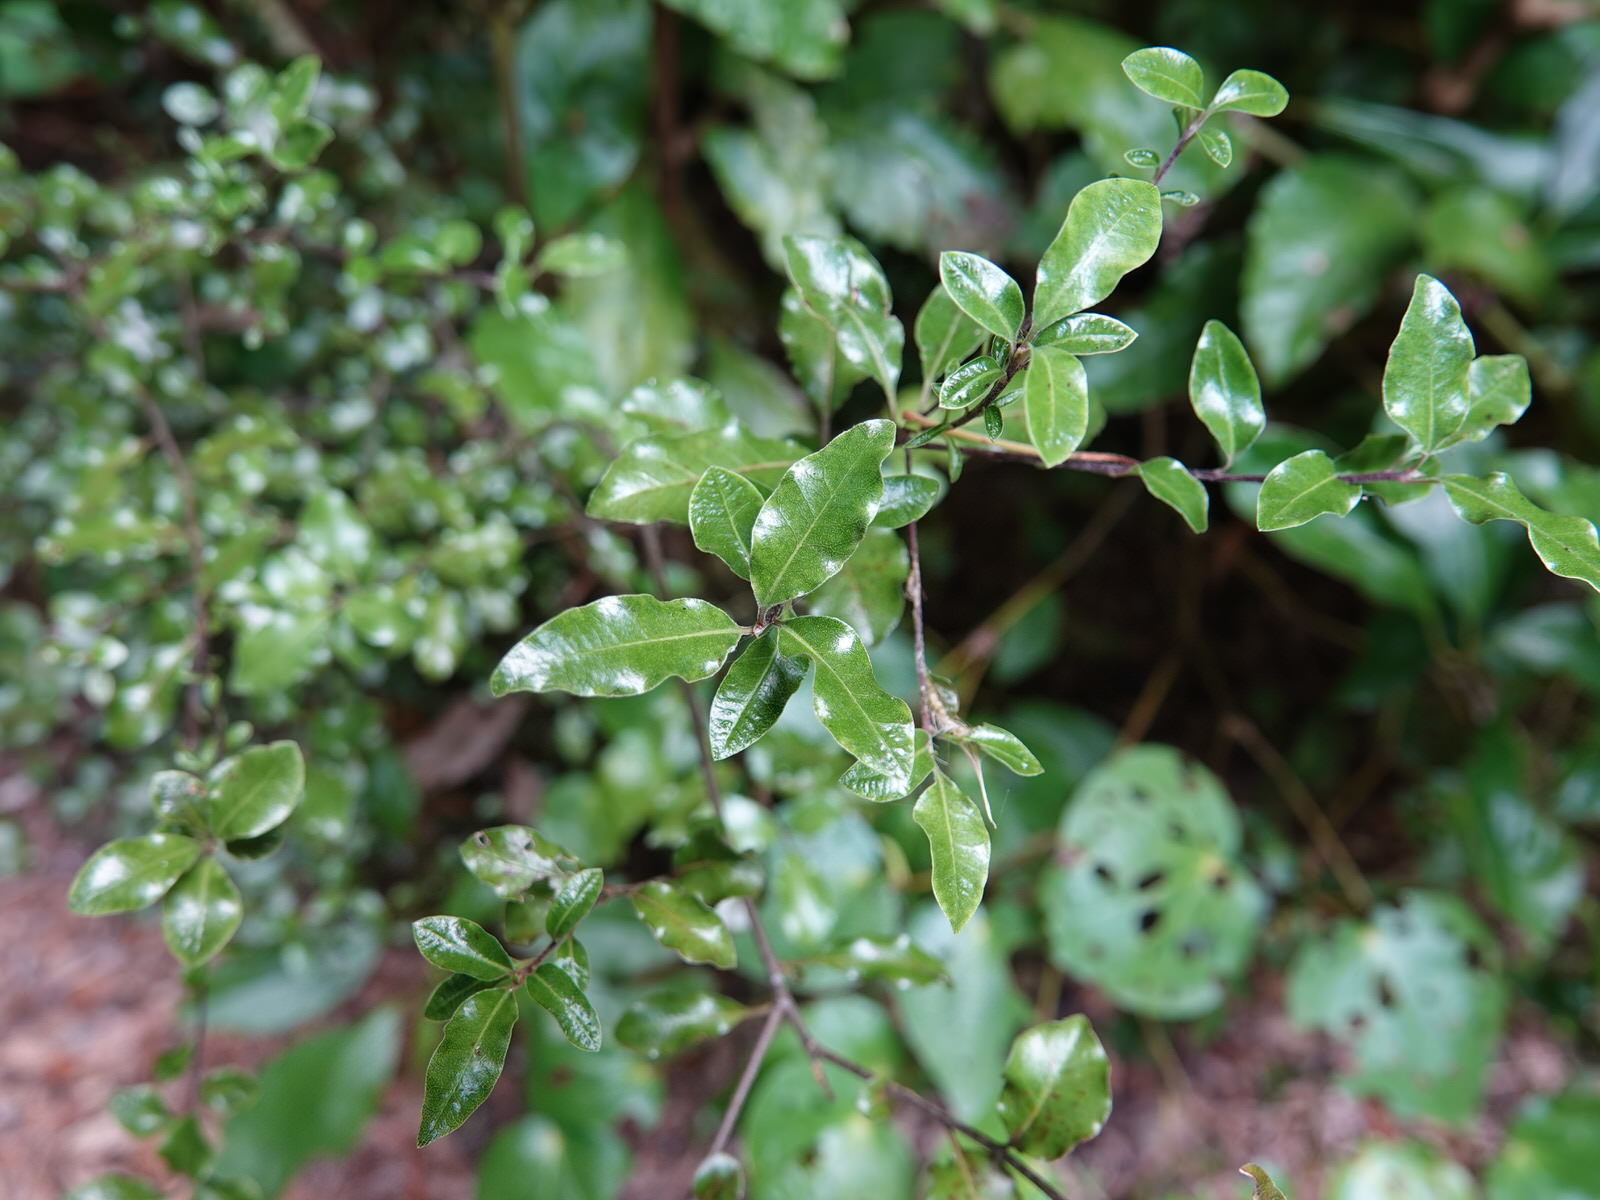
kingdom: Plantae
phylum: Tracheophyta
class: Magnoliopsida
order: Apiales
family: Pittosporaceae
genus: Pittosporum
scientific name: Pittosporum tenuifolium
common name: Kohuhu
